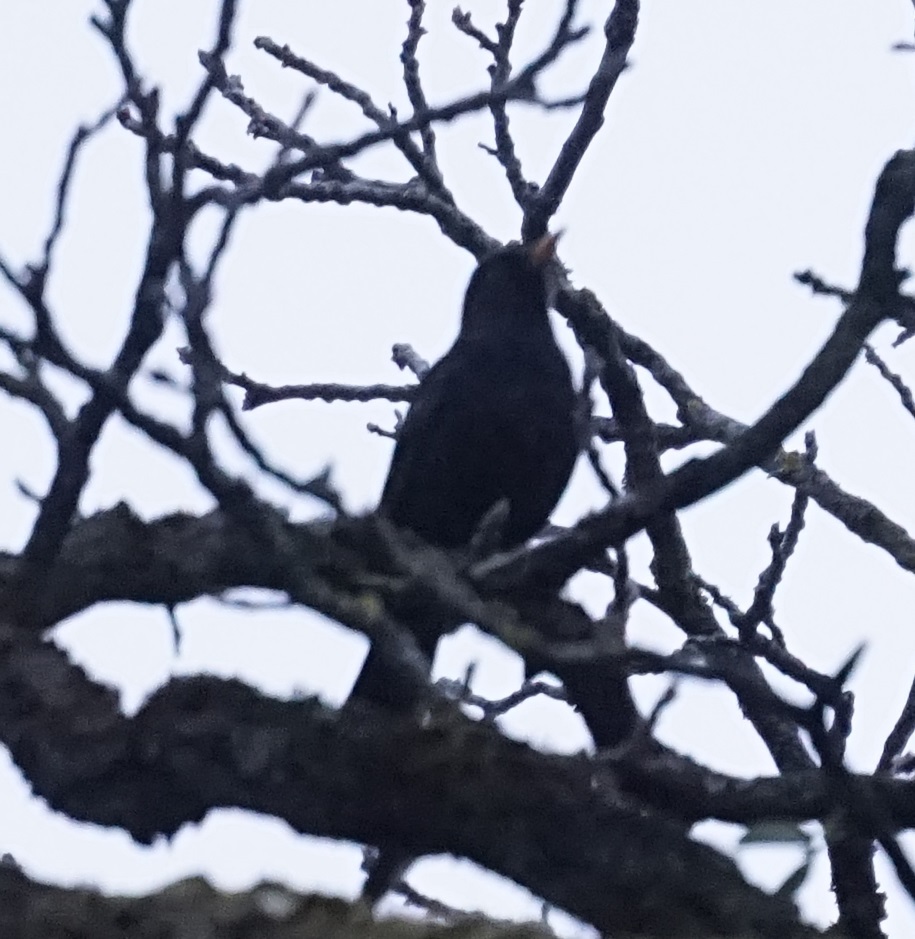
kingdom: Animalia
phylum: Chordata
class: Aves
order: Passeriformes
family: Turdidae
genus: Turdus
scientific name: Turdus merula
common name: Common blackbird
